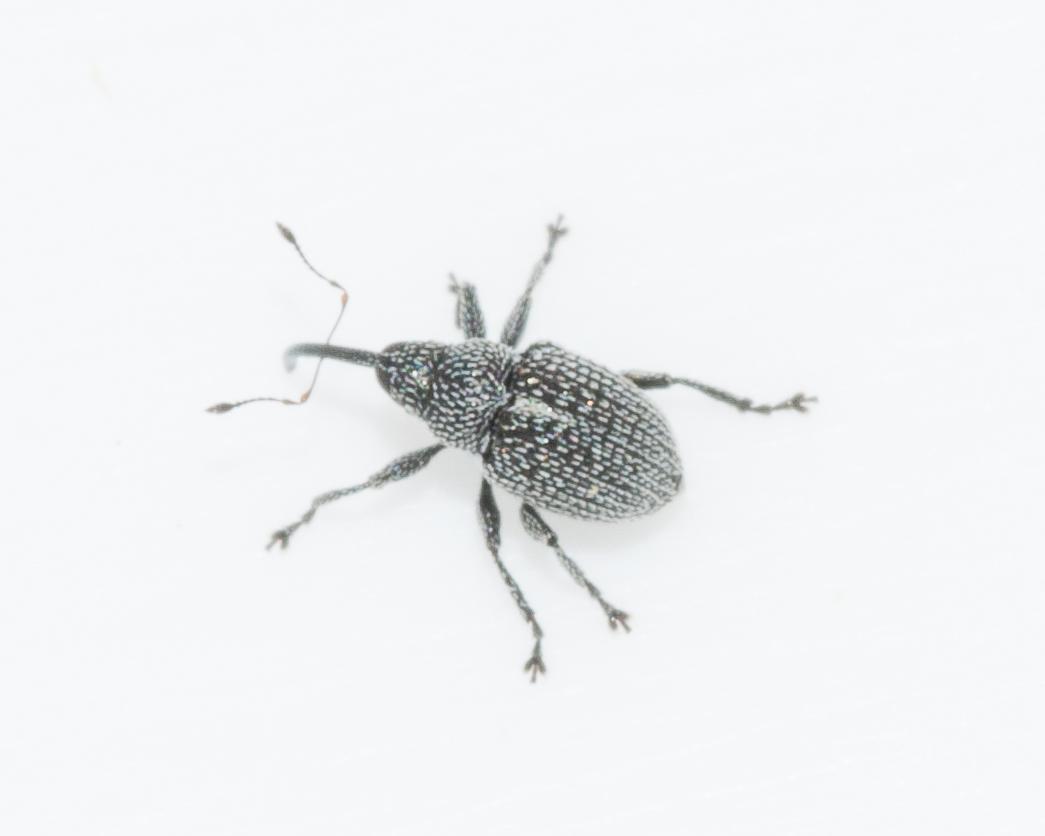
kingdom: Animalia
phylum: Arthropoda
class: Insecta
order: Coleoptera
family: Curculionidae
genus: Scobinoides
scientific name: Scobinoides
